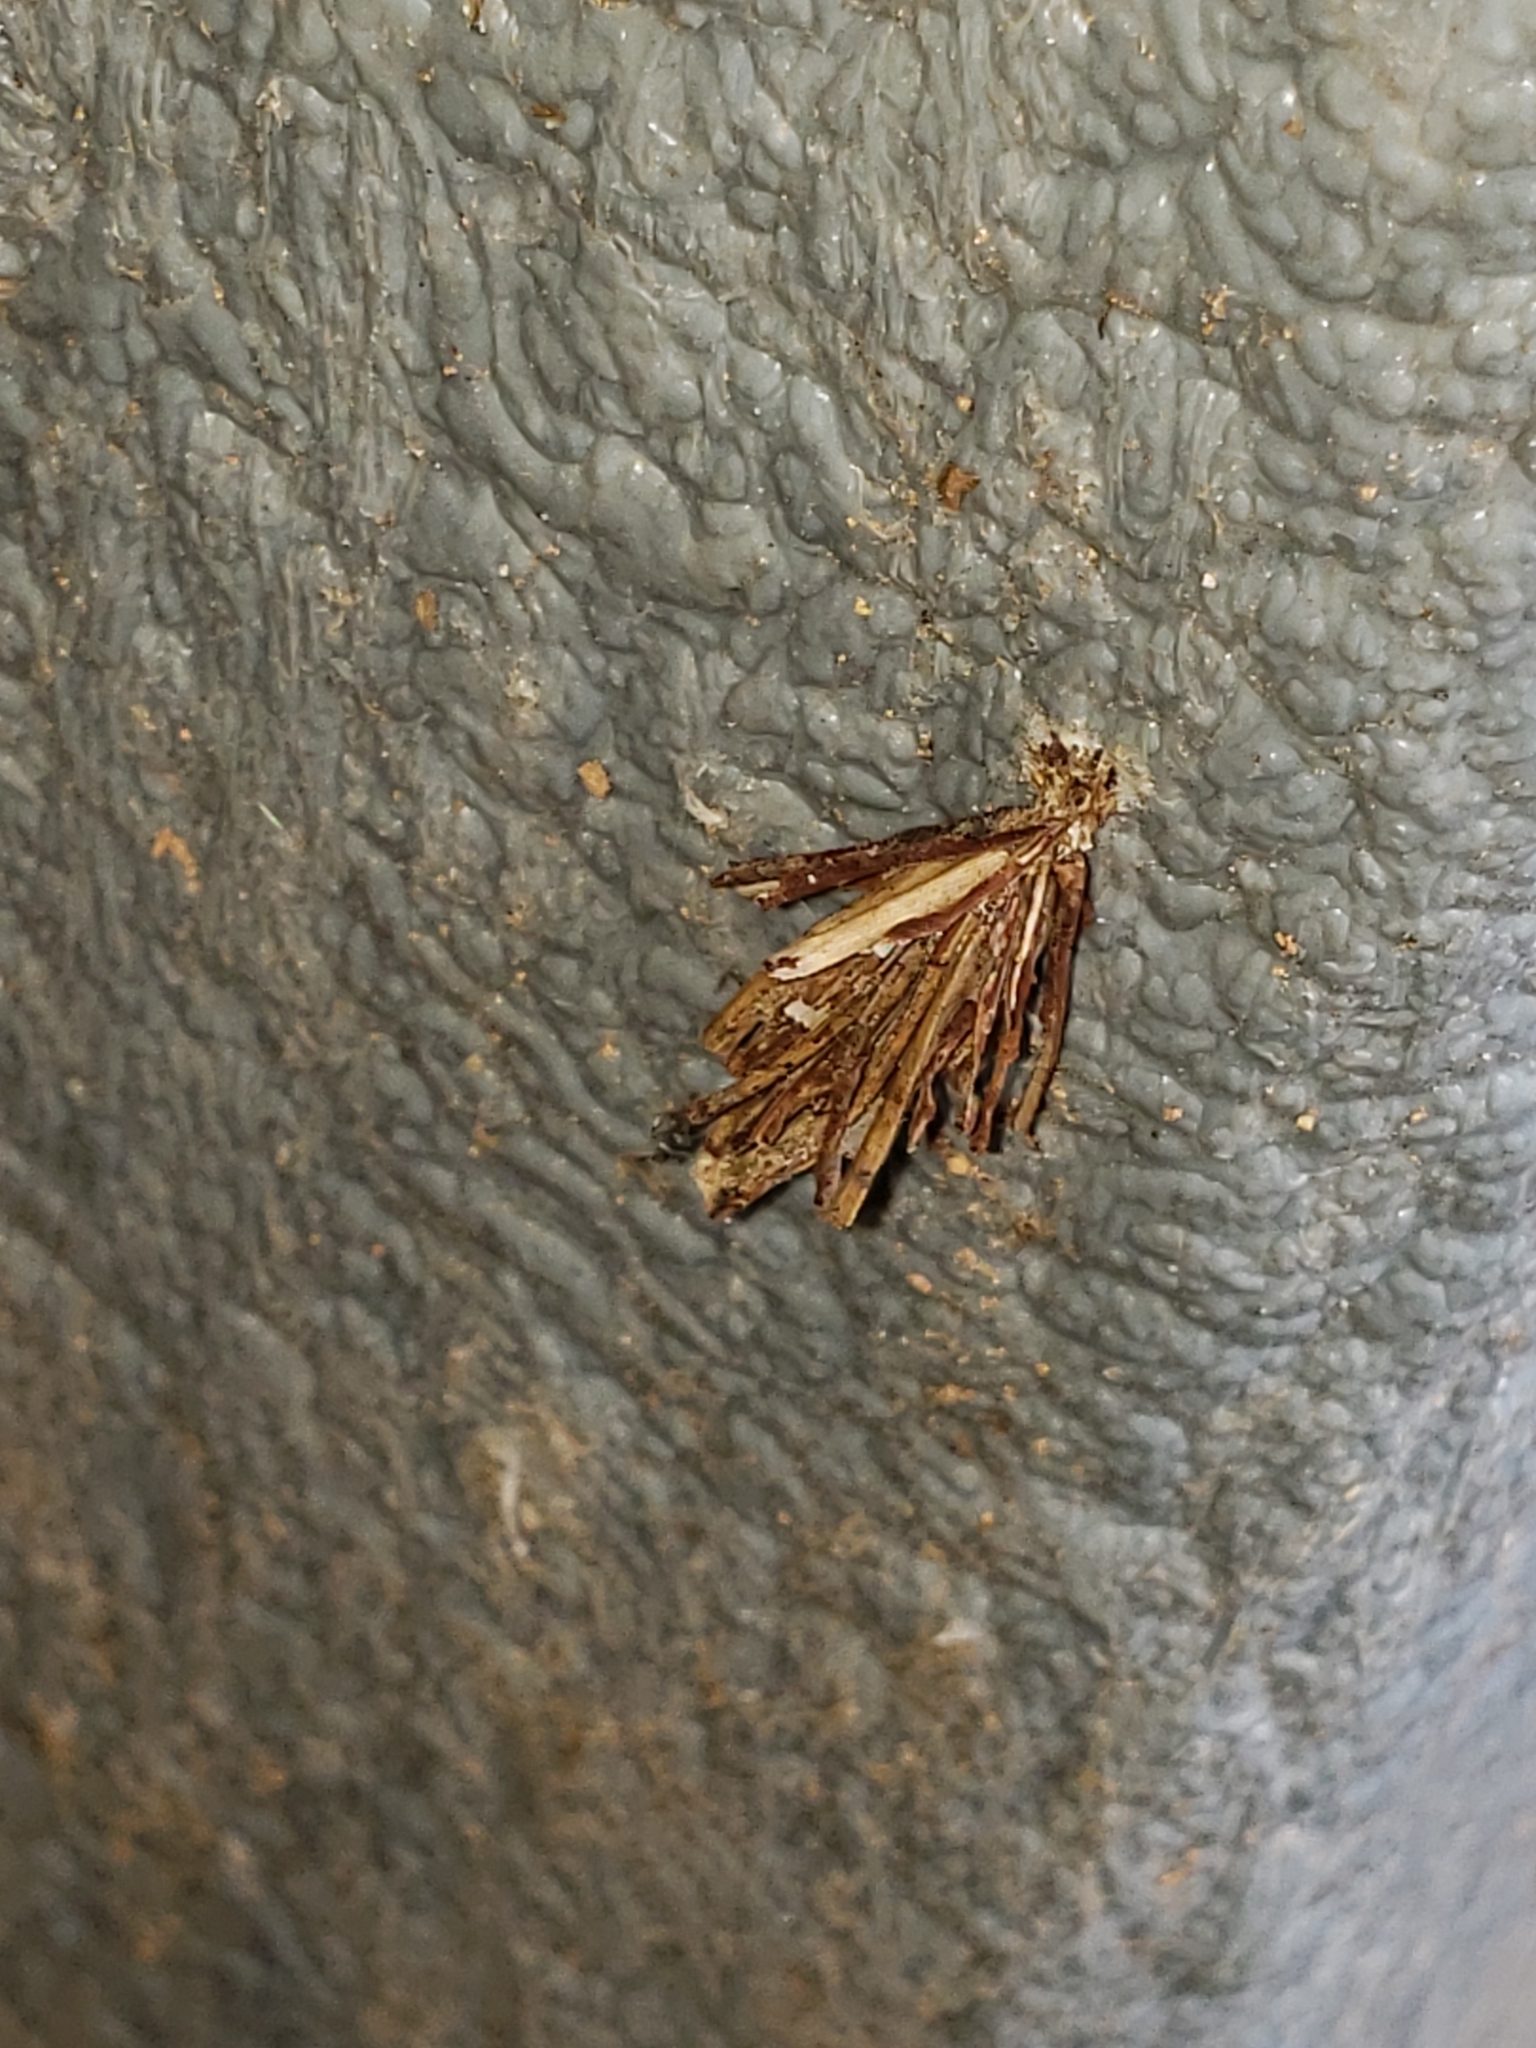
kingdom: Animalia
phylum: Arthropoda
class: Insecta
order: Lepidoptera
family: Psychidae
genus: Psyche
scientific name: Psyche casta
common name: Common sweep
